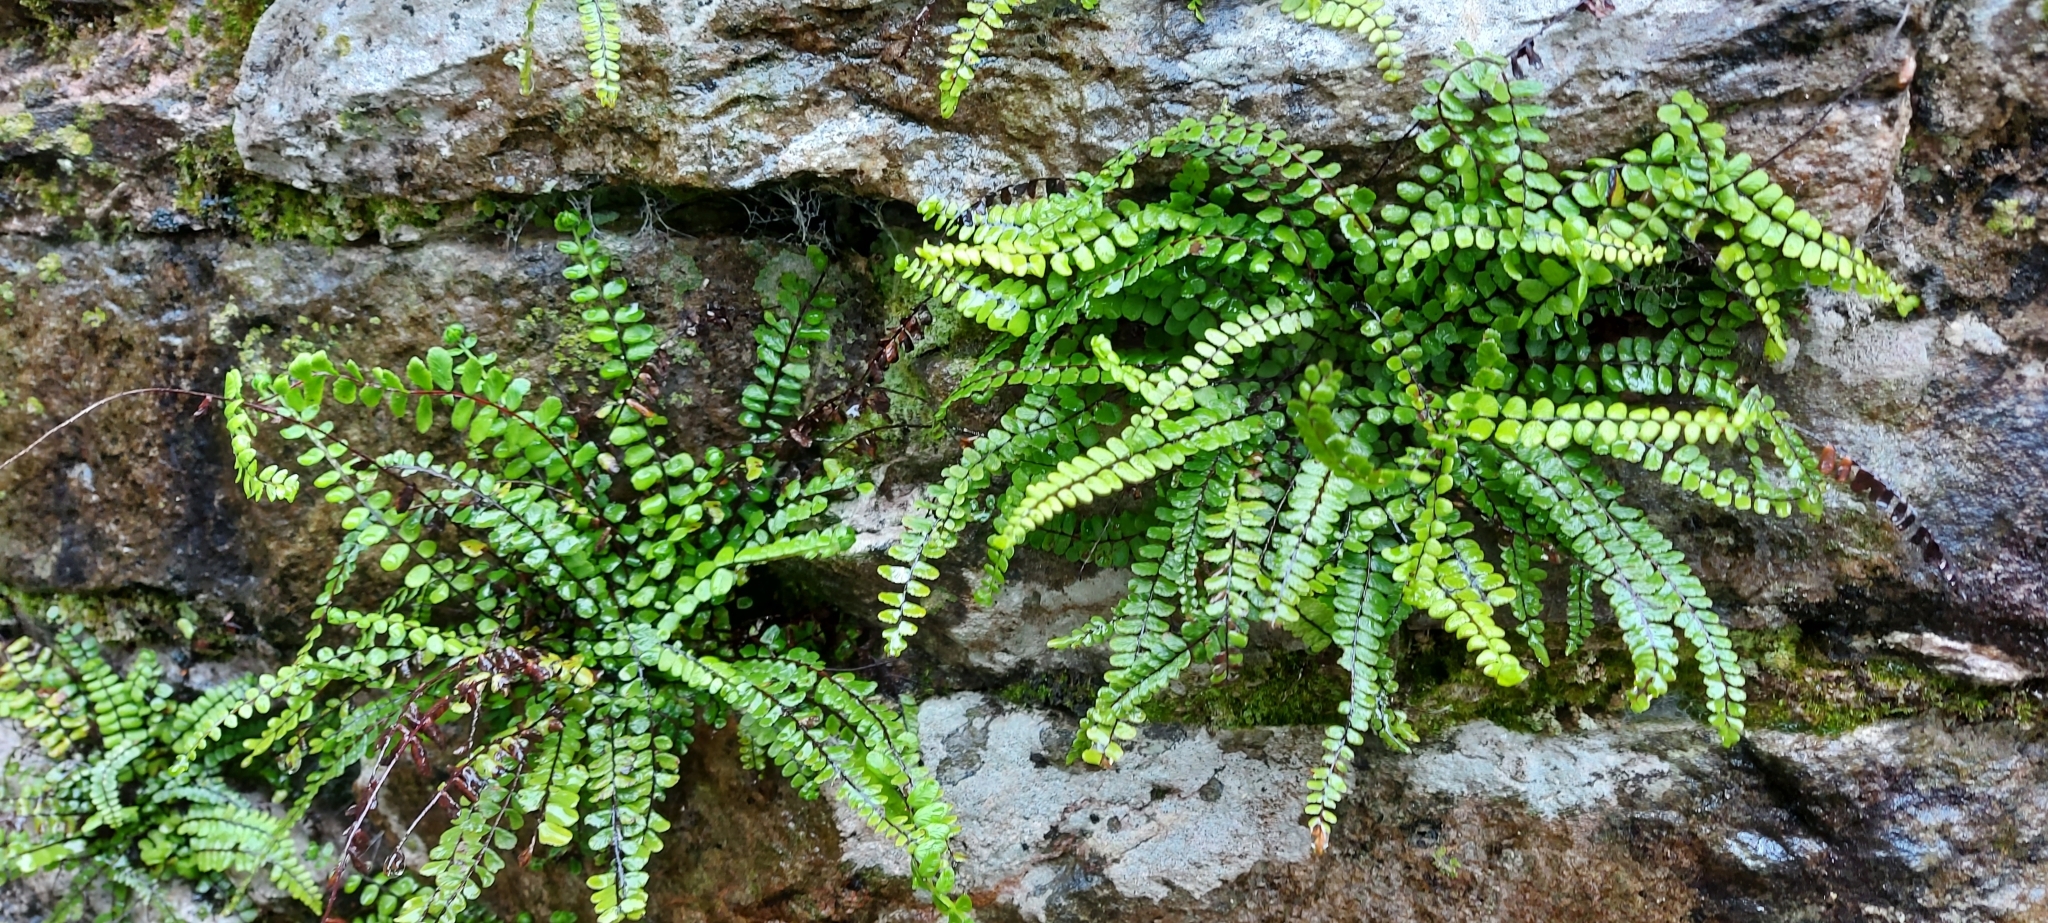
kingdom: Plantae
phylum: Tracheophyta
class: Polypodiopsida
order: Polypodiales
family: Aspleniaceae
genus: Asplenium
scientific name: Asplenium trichomanes
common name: Maidenhair spleenwort
